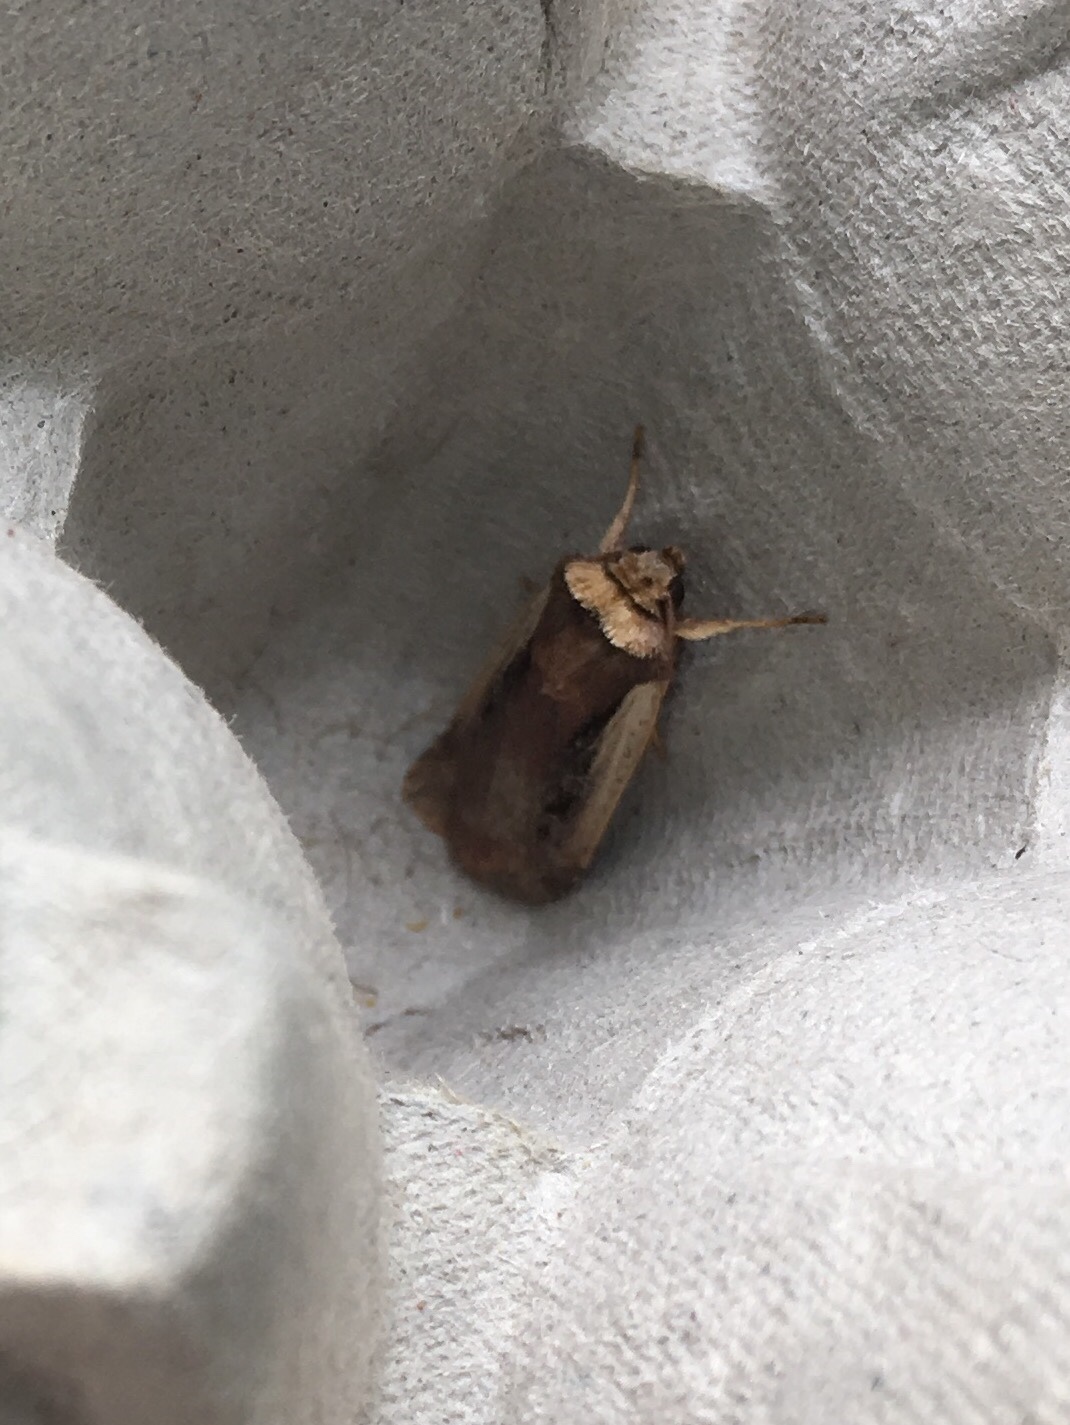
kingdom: Animalia
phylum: Arthropoda
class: Insecta
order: Lepidoptera
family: Noctuidae
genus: Ochropleura
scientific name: Ochropleura implecta
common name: Flame-shouldered dart
